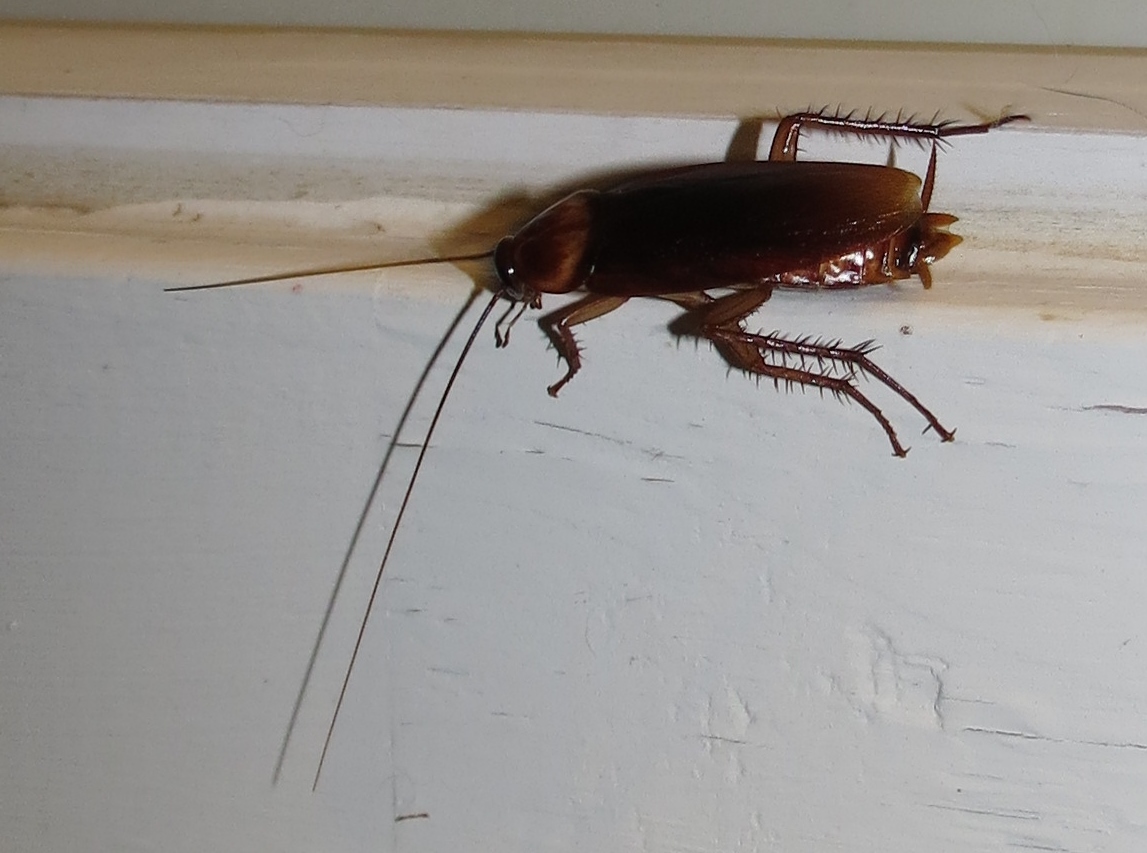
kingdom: Animalia
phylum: Arthropoda
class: Insecta
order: Blattodea
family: Blattidae
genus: Periplaneta
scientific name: Periplaneta americana
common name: American cockroach
